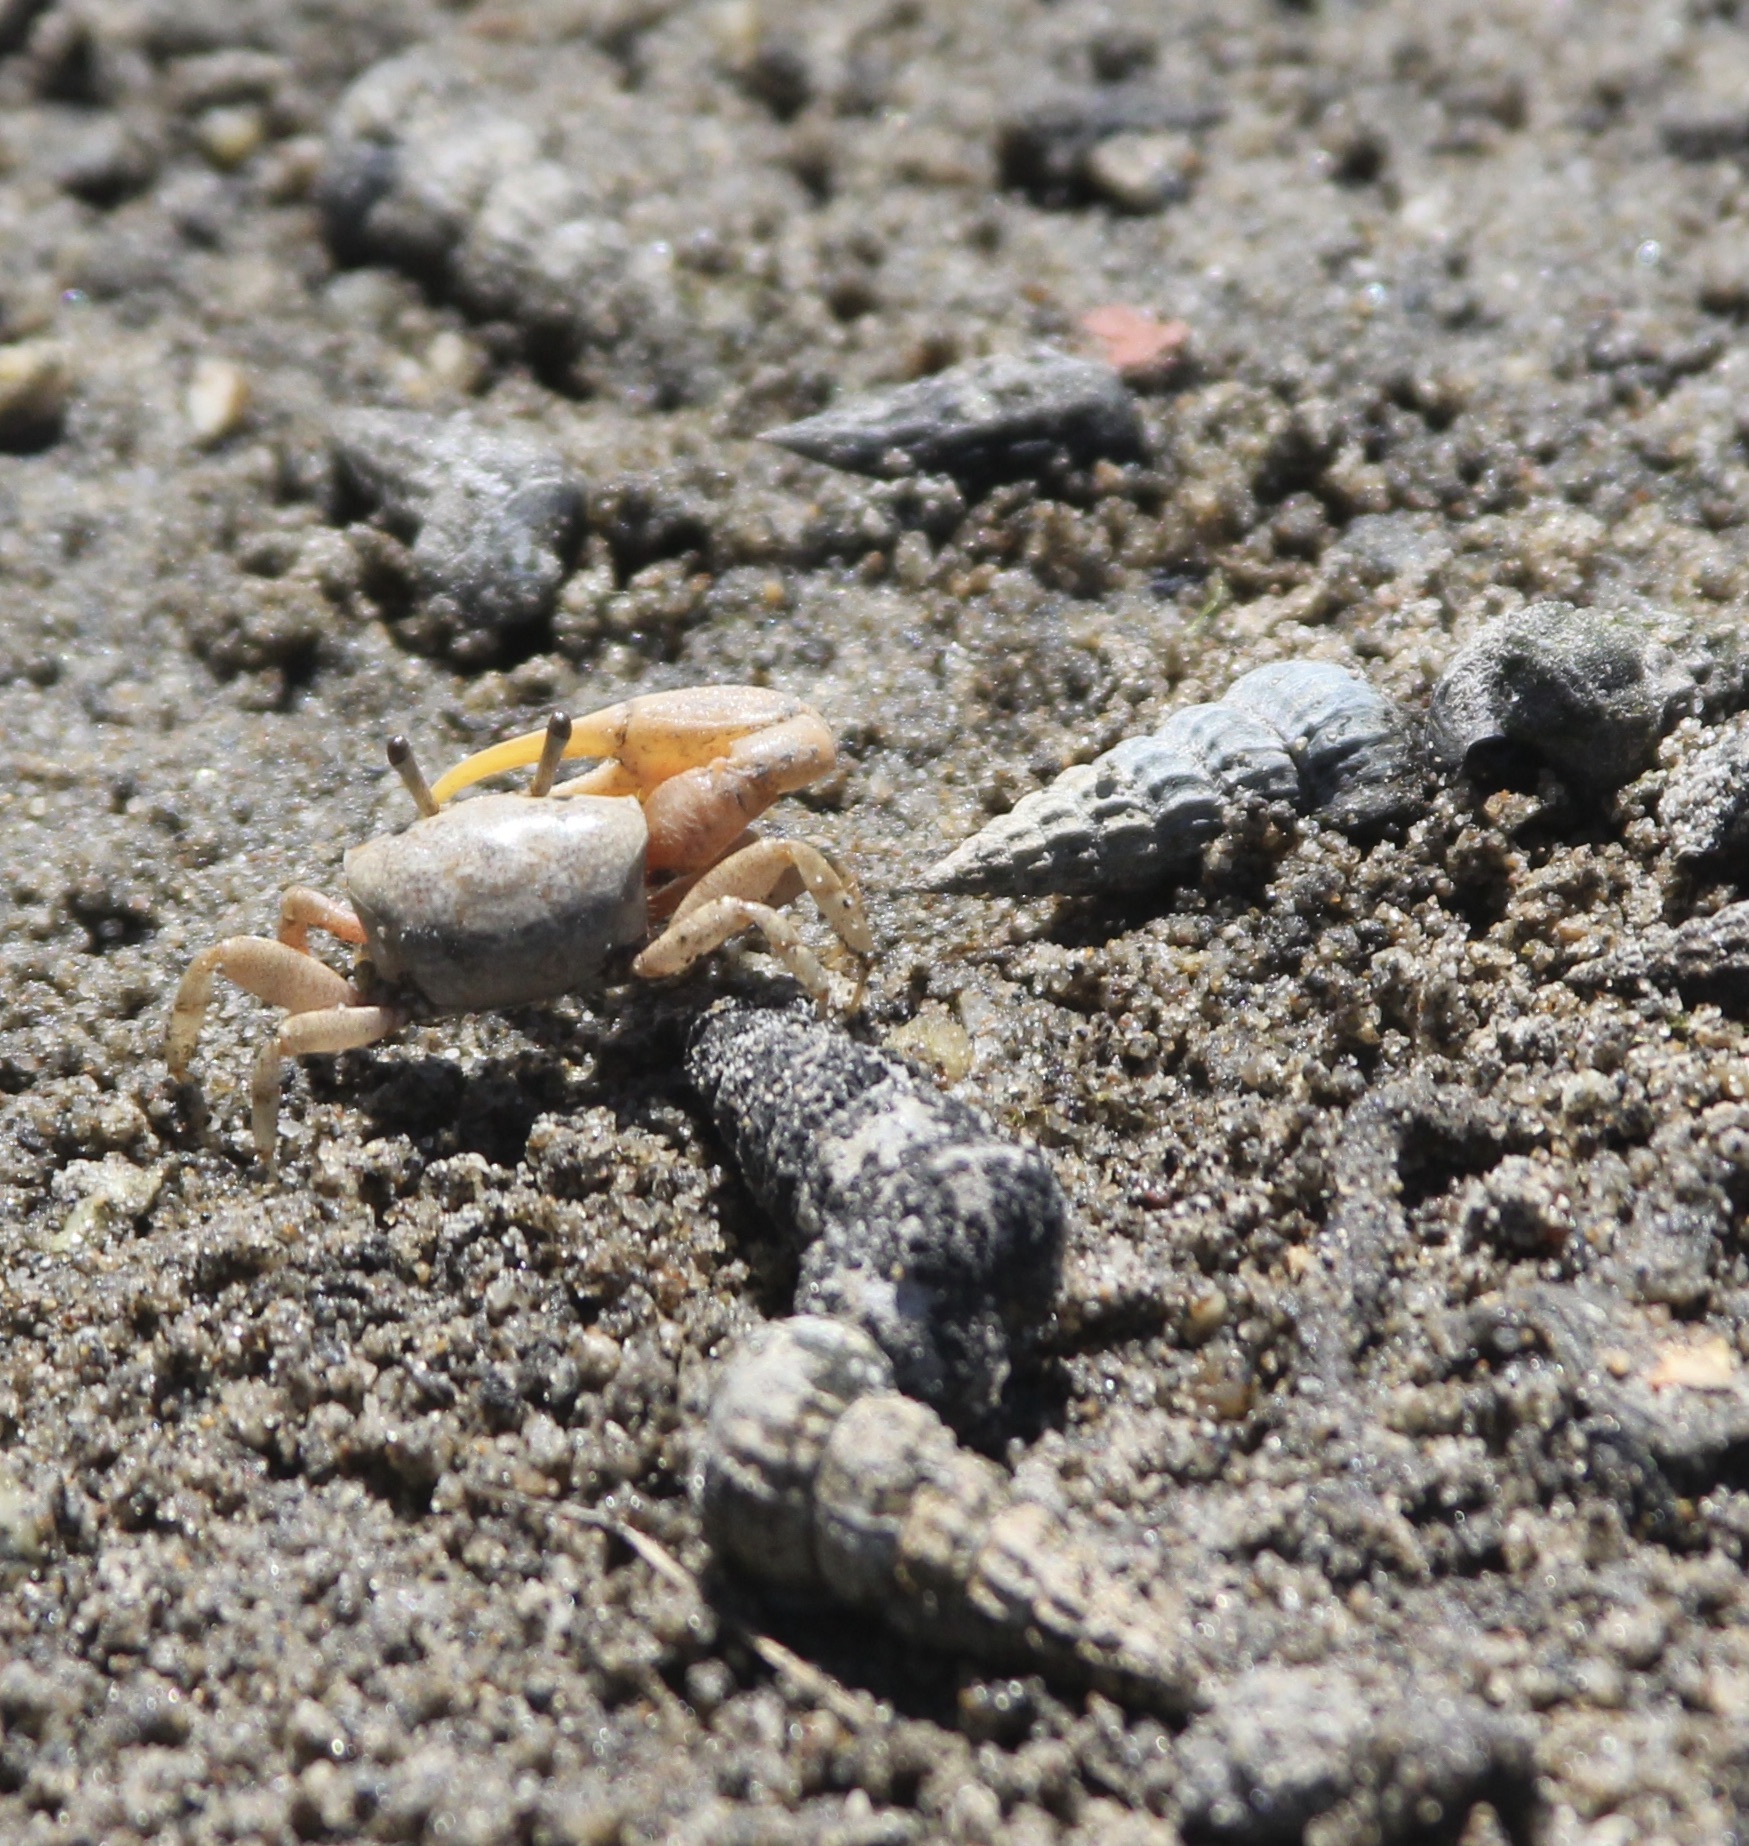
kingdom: Animalia
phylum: Arthropoda
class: Malacostraca
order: Decapoda
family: Ocypodidae
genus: Leptuca
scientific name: Leptuca crenulata
